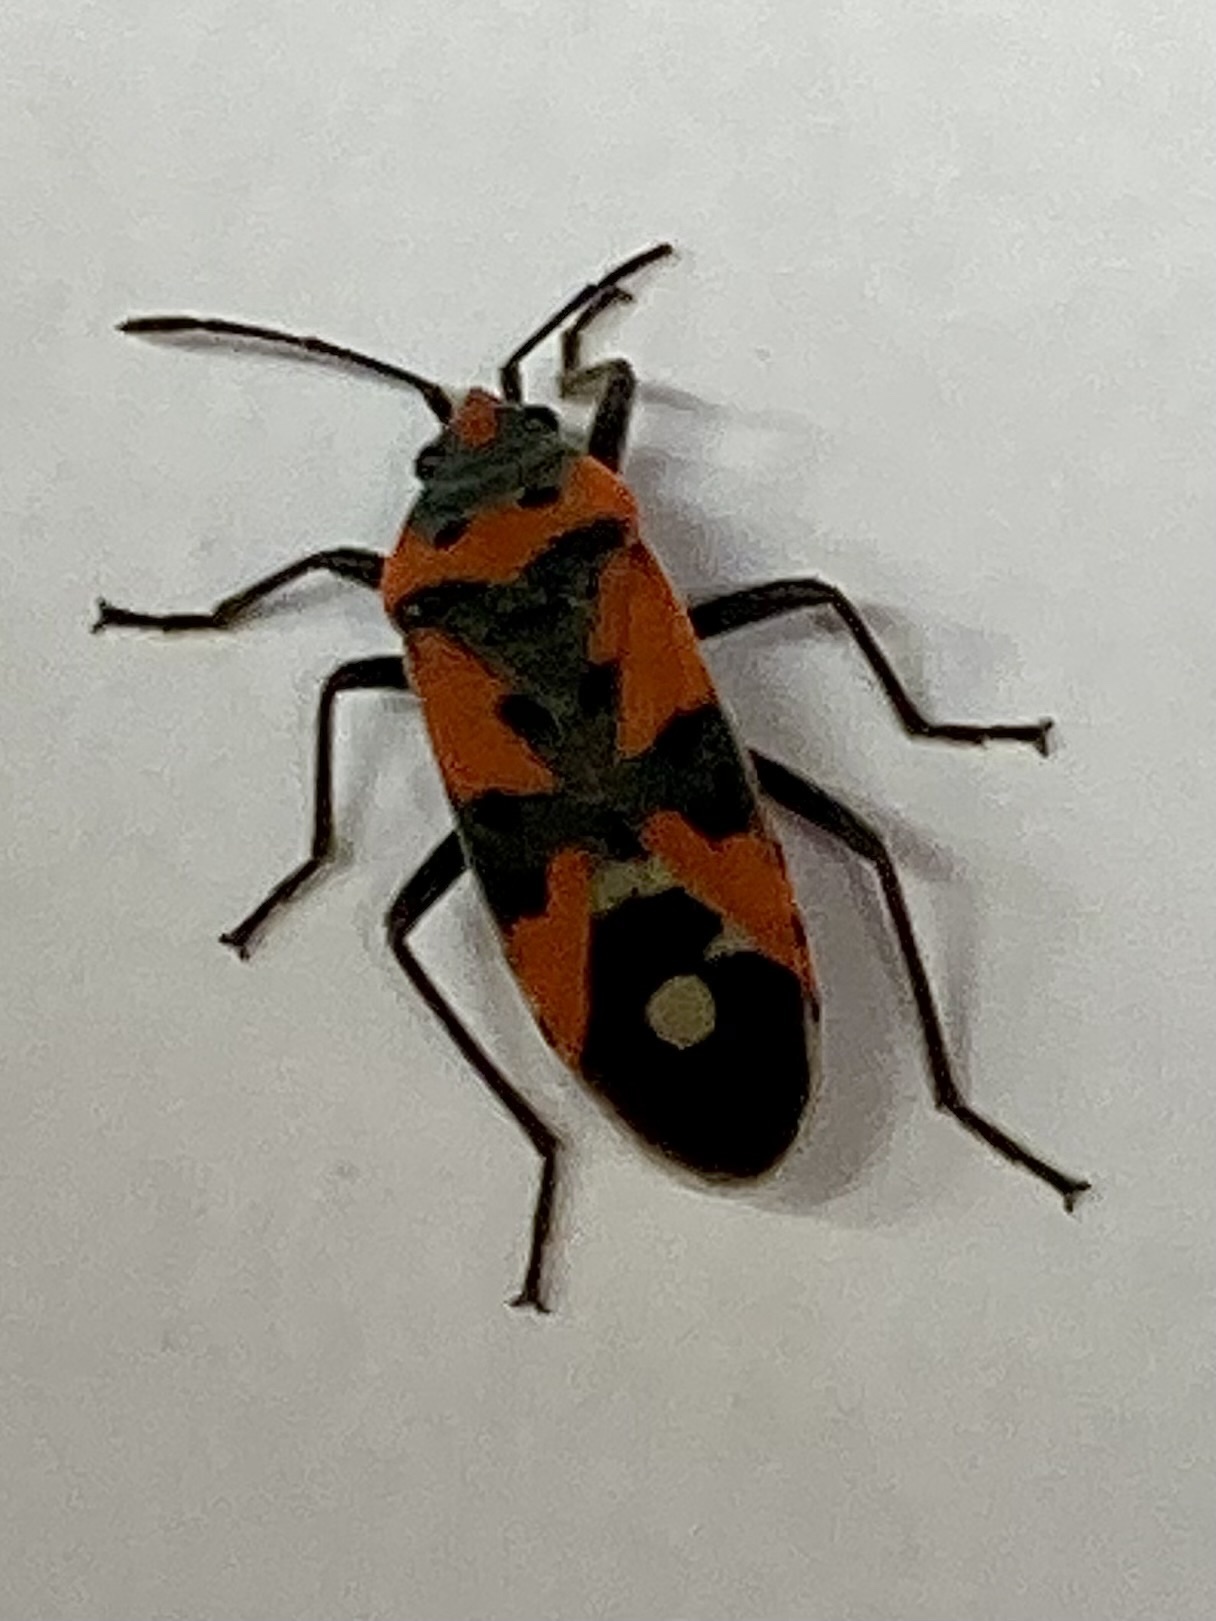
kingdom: Animalia
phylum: Arthropoda
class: Insecta
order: Hemiptera
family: Lygaeidae
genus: Lygaeus
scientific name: Lygaeus
